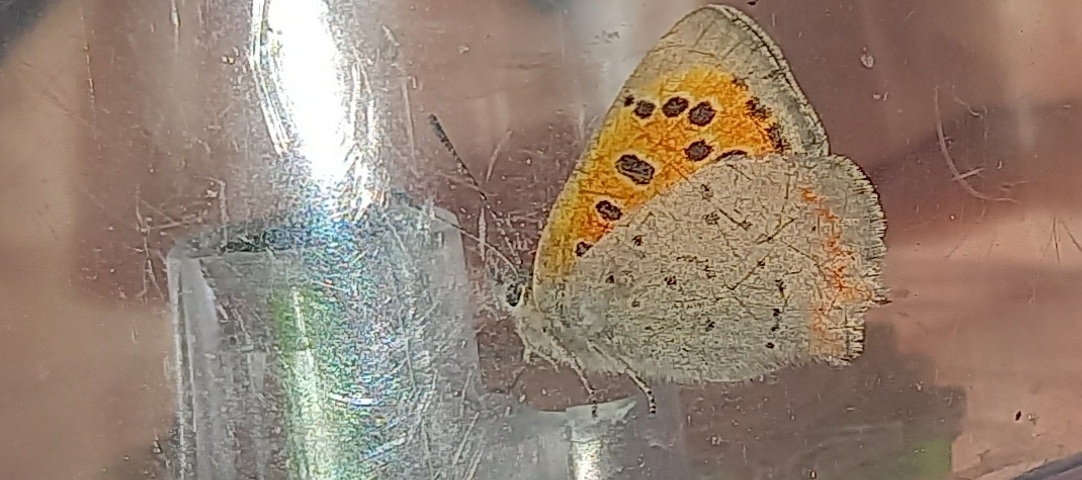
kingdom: Animalia
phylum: Arthropoda
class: Insecta
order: Lepidoptera
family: Lycaenidae
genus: Lycaena
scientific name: Lycaena phlaeas
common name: Small copper
